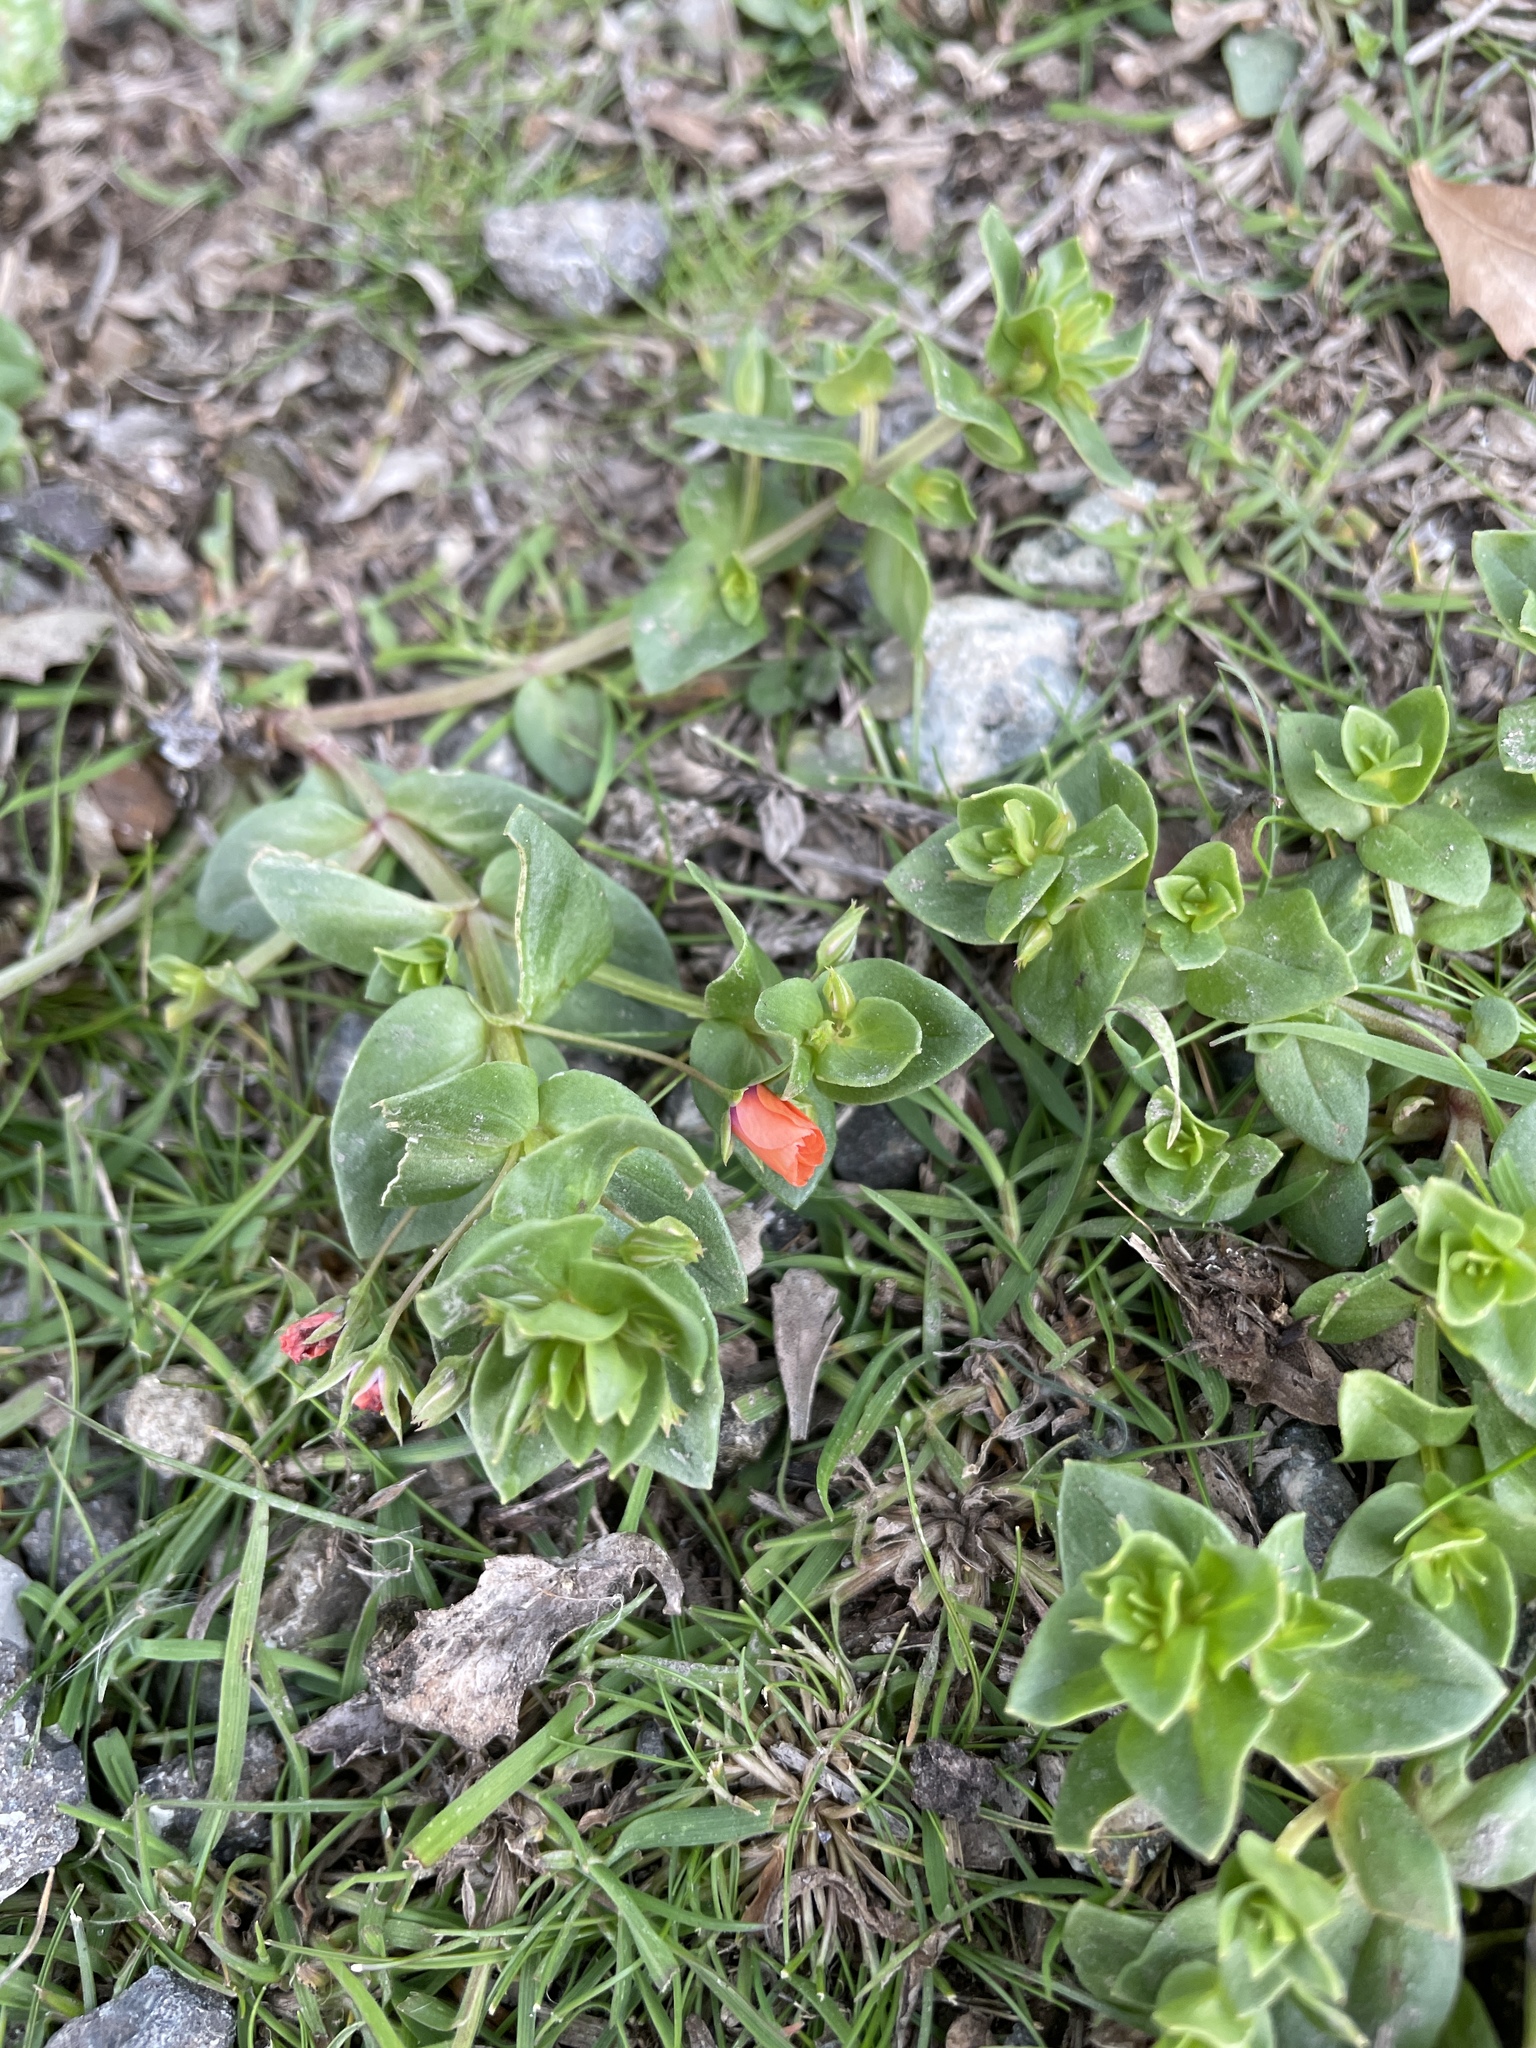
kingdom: Plantae
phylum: Tracheophyta
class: Magnoliopsida
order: Ericales
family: Primulaceae
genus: Lysimachia
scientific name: Lysimachia arvensis
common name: Scarlet pimpernel
